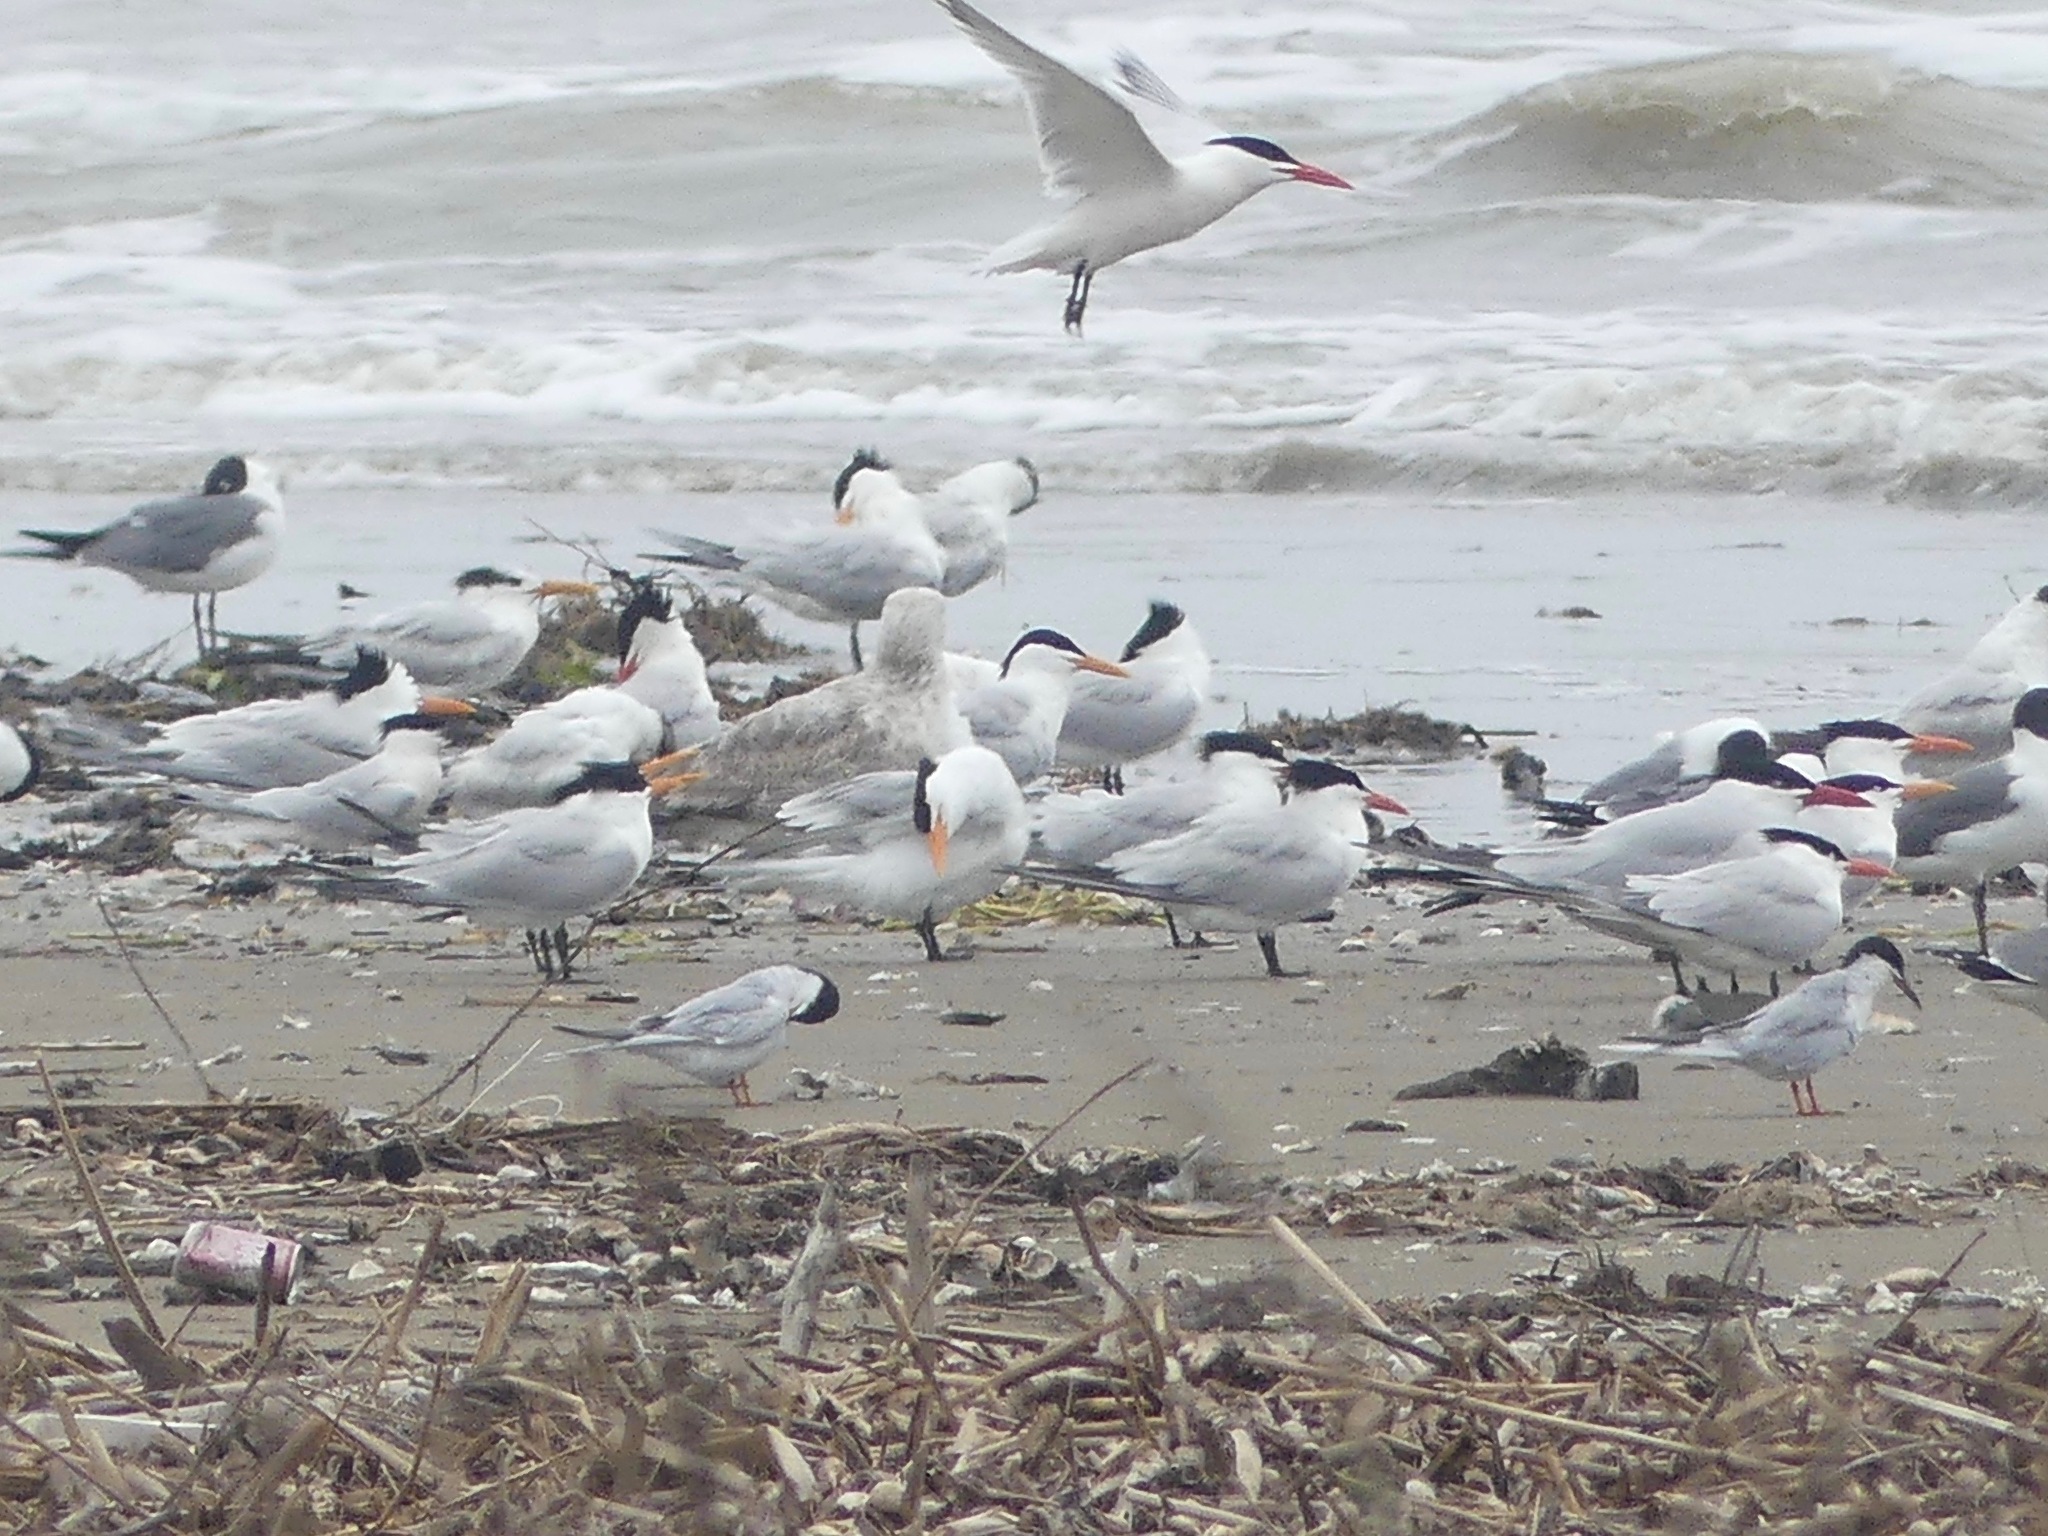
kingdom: Animalia
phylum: Chordata
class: Aves
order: Charadriiformes
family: Laridae
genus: Thalasseus
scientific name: Thalasseus maximus
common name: Royal tern
